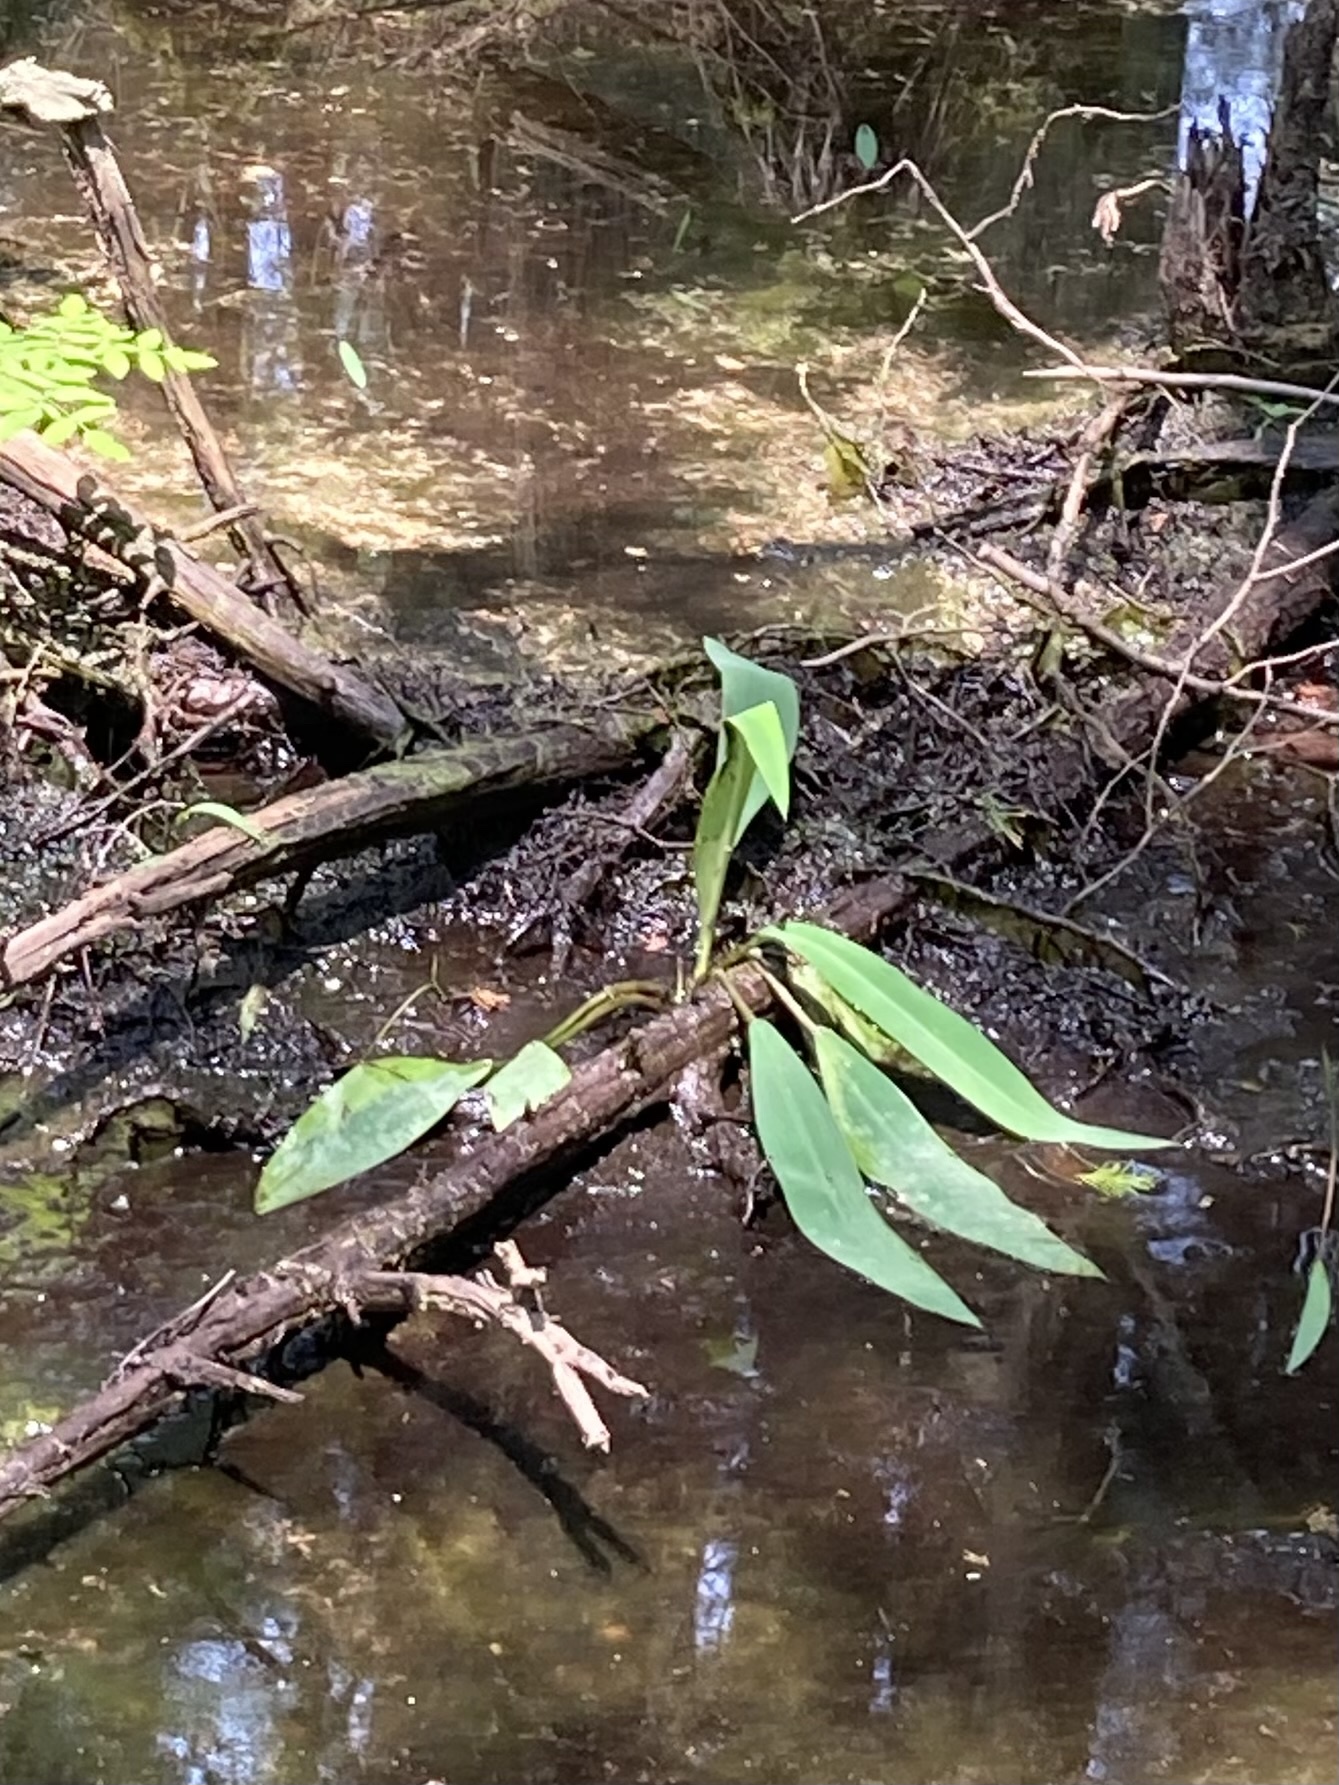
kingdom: Plantae
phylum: Tracheophyta
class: Liliopsida
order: Alismatales
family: Araceae
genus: Orontium
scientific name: Orontium aquaticum
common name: Golden-club
